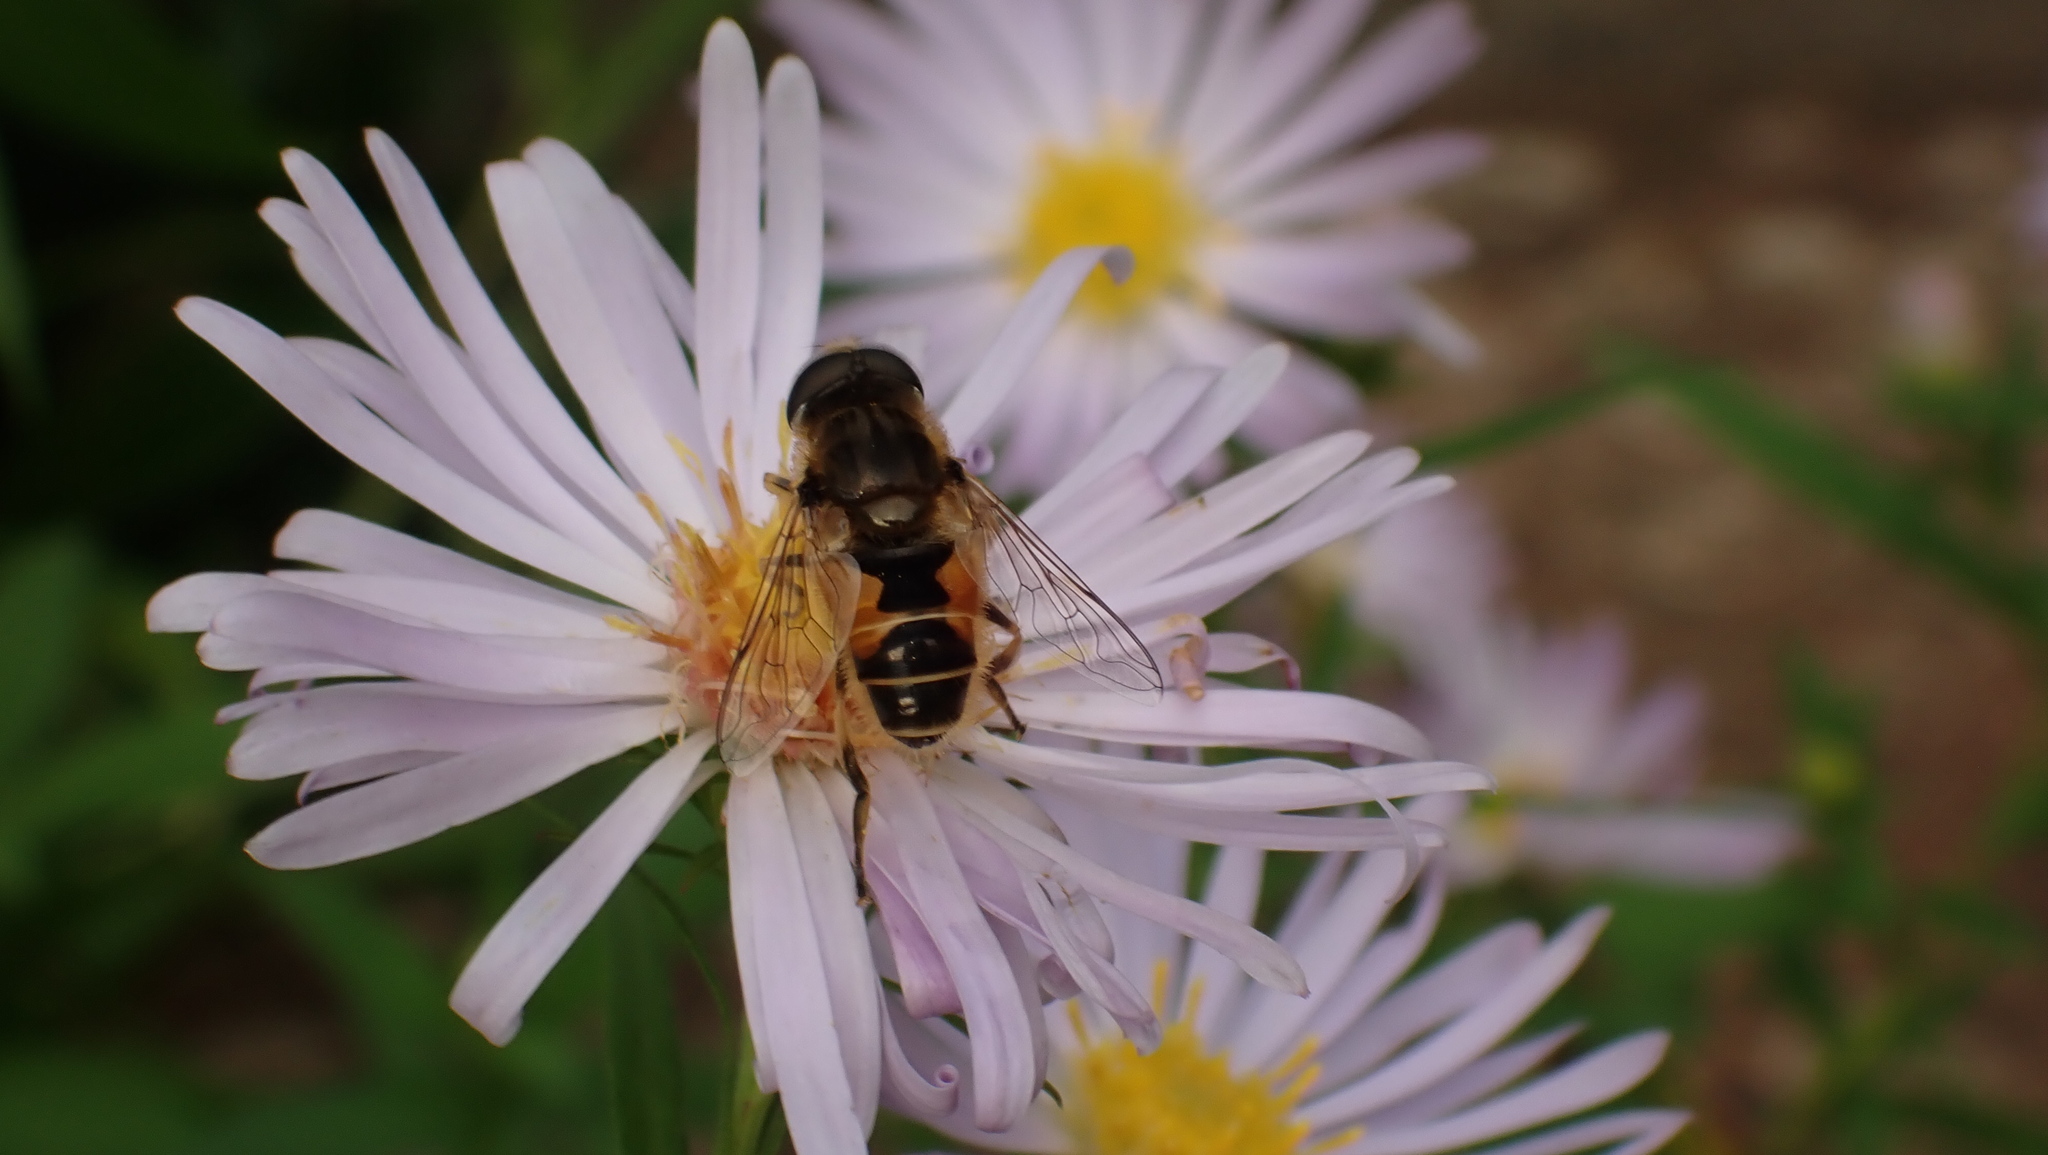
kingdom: Animalia
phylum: Arthropoda
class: Insecta
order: Diptera
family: Syrphidae
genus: Eristalis
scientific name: Eristalis
